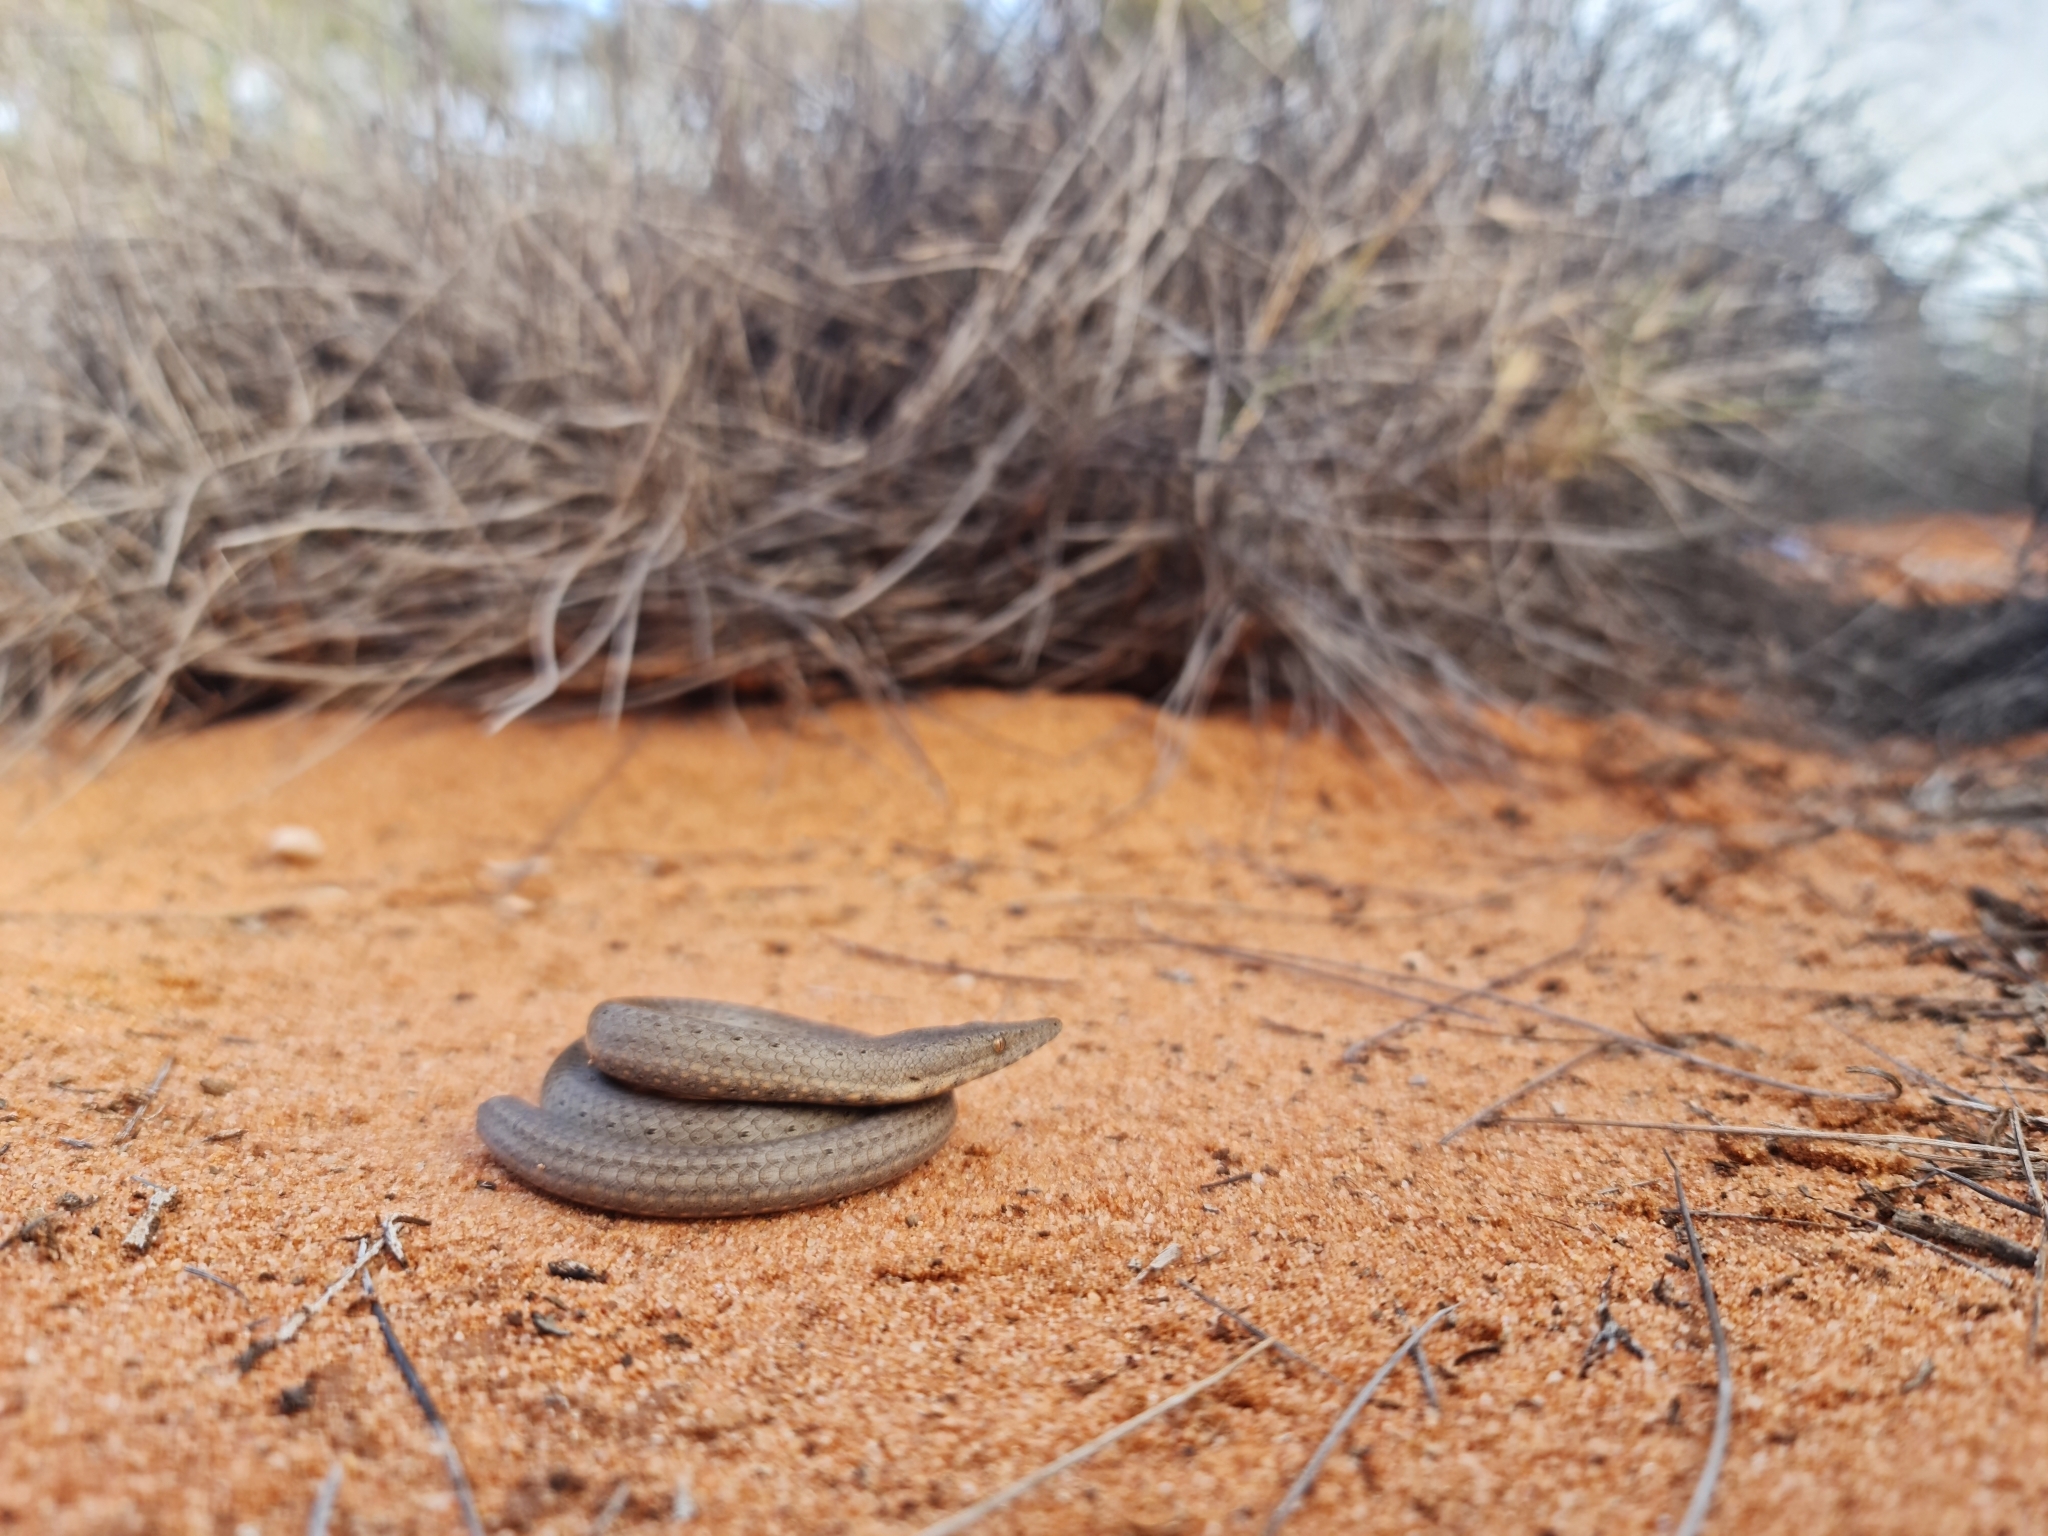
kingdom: Animalia
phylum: Chordata
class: Squamata
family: Pygopodidae
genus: Lialis
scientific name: Lialis burtonis
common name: Burton's legless lizard
